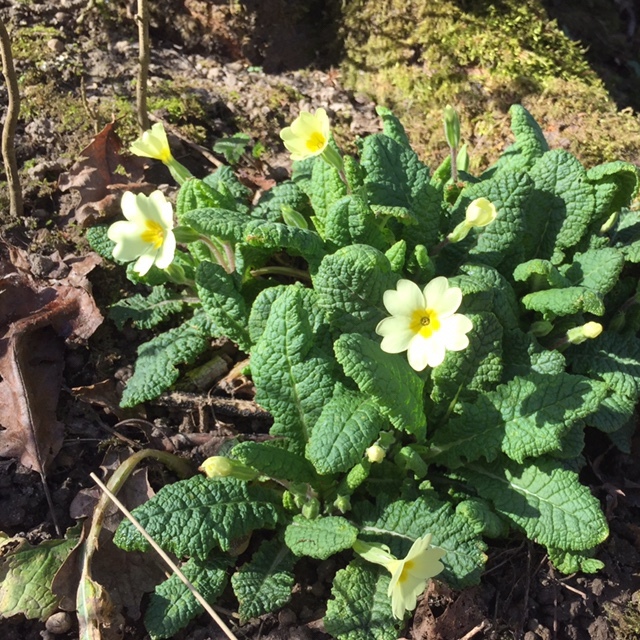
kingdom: Plantae
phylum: Tracheophyta
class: Magnoliopsida
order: Ericales
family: Primulaceae
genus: Primula
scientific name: Primula vulgaris
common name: Primrose
